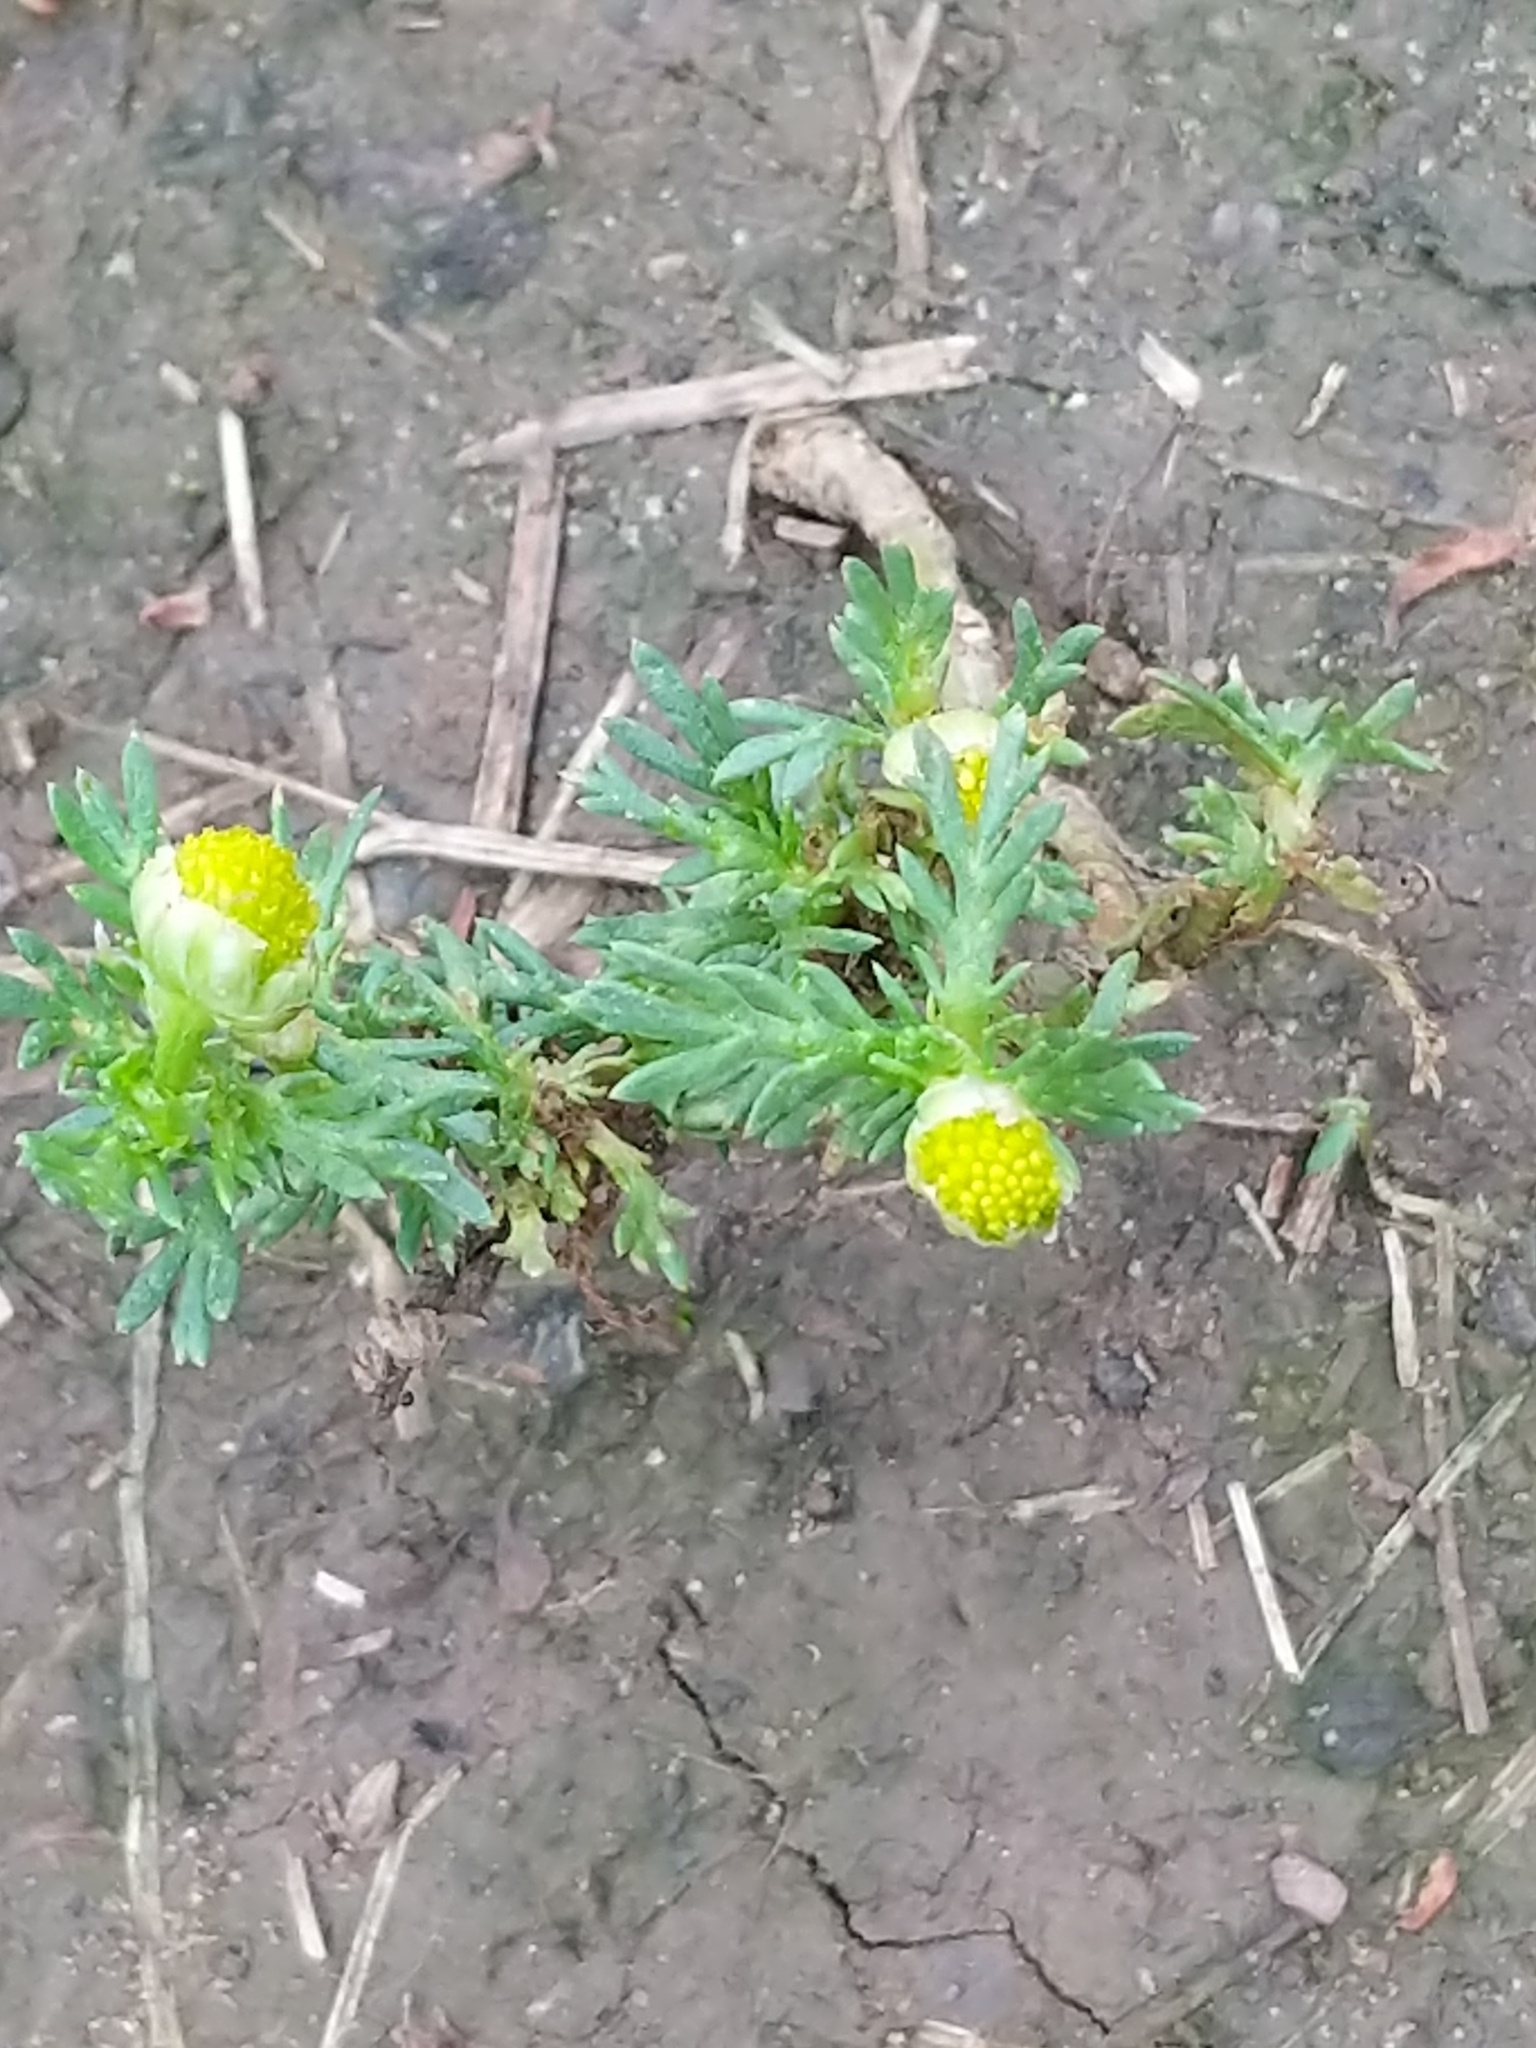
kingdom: Plantae
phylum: Tracheophyta
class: Magnoliopsida
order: Asterales
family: Asteraceae
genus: Matricaria
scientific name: Matricaria discoidea
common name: Disc mayweed
